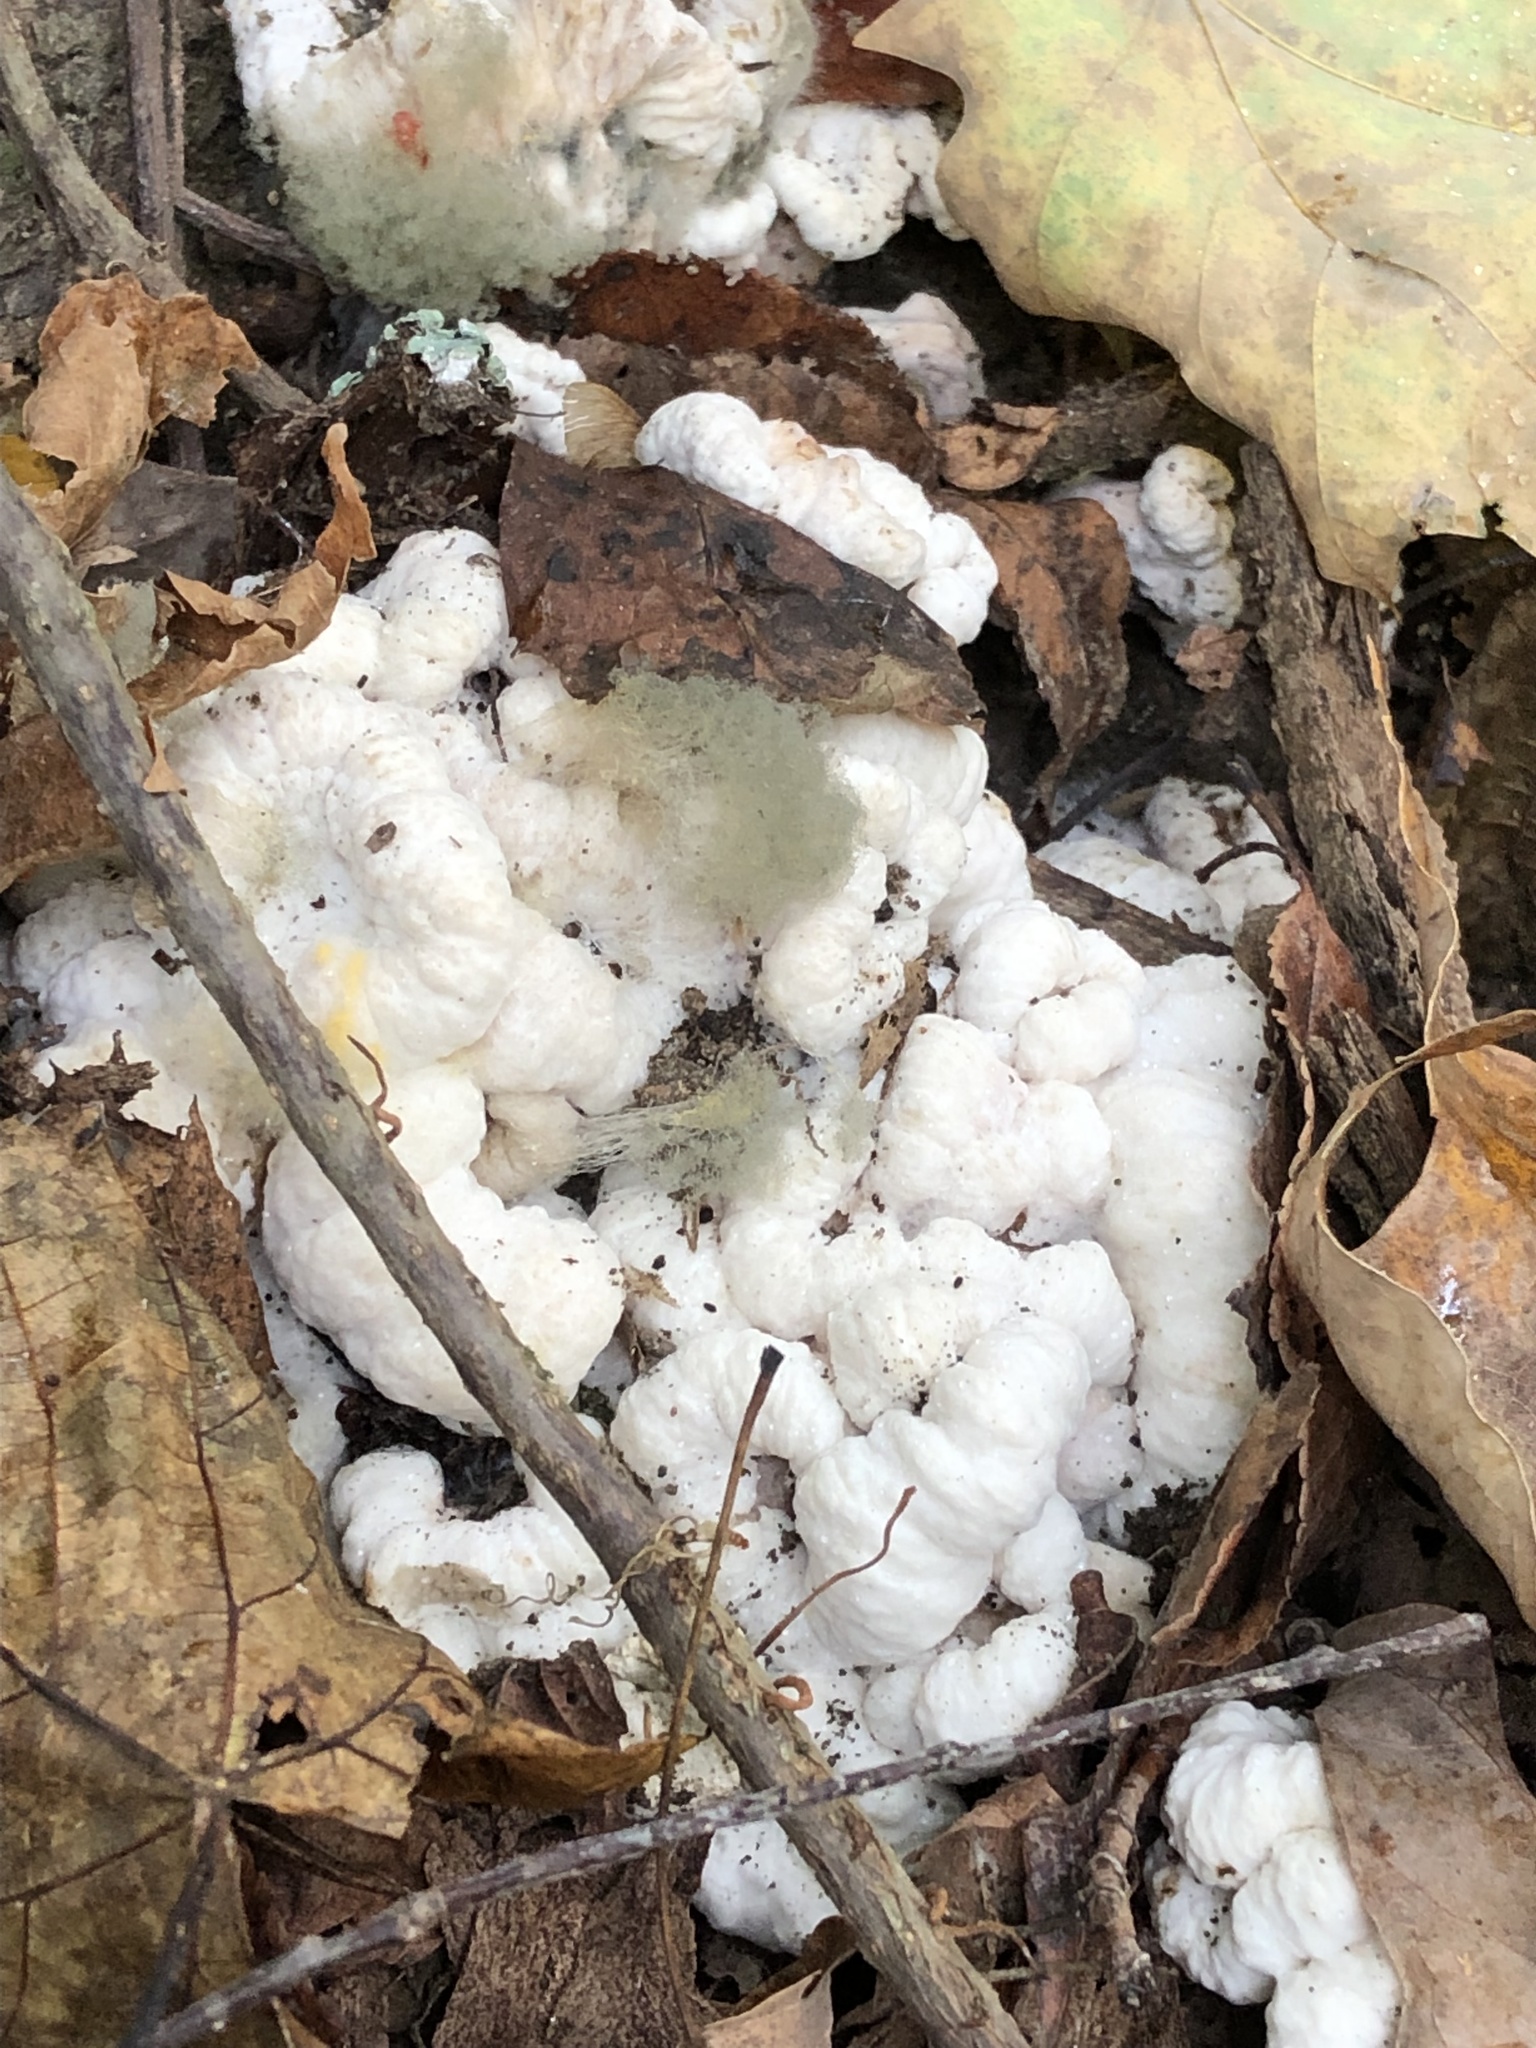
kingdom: Fungi
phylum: Basidiomycota
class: Agaricomycetes
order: Agaricales
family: Entolomataceae
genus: Entoloma
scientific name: Entoloma abortivum
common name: Aborted entoloma
